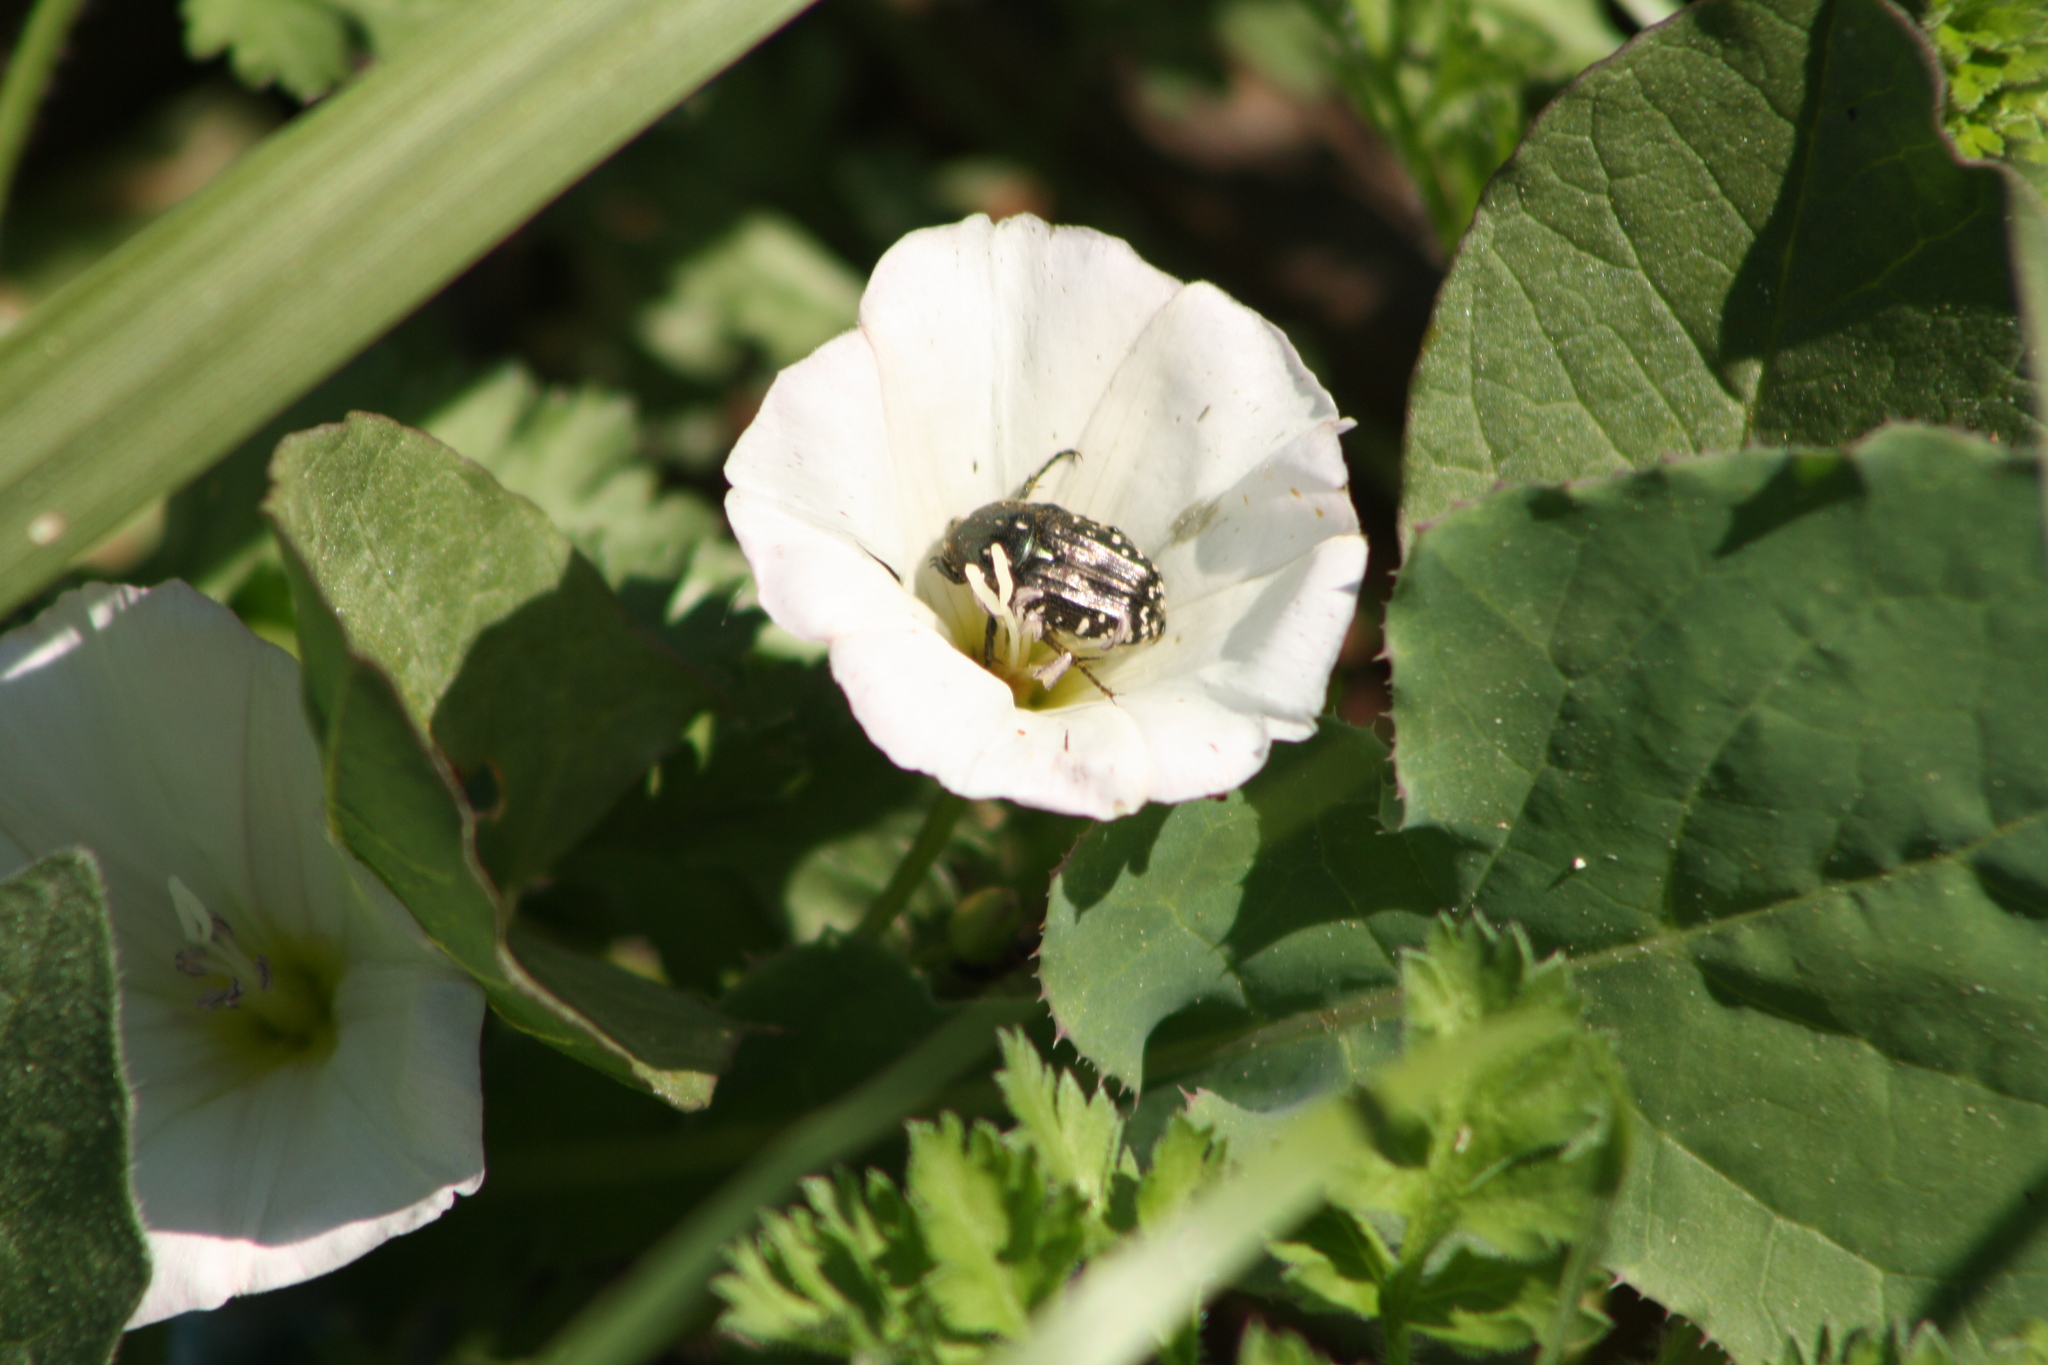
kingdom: Animalia
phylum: Arthropoda
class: Insecta
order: Coleoptera
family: Scarabaeidae
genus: Oxythyrea
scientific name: Oxythyrea funesta
